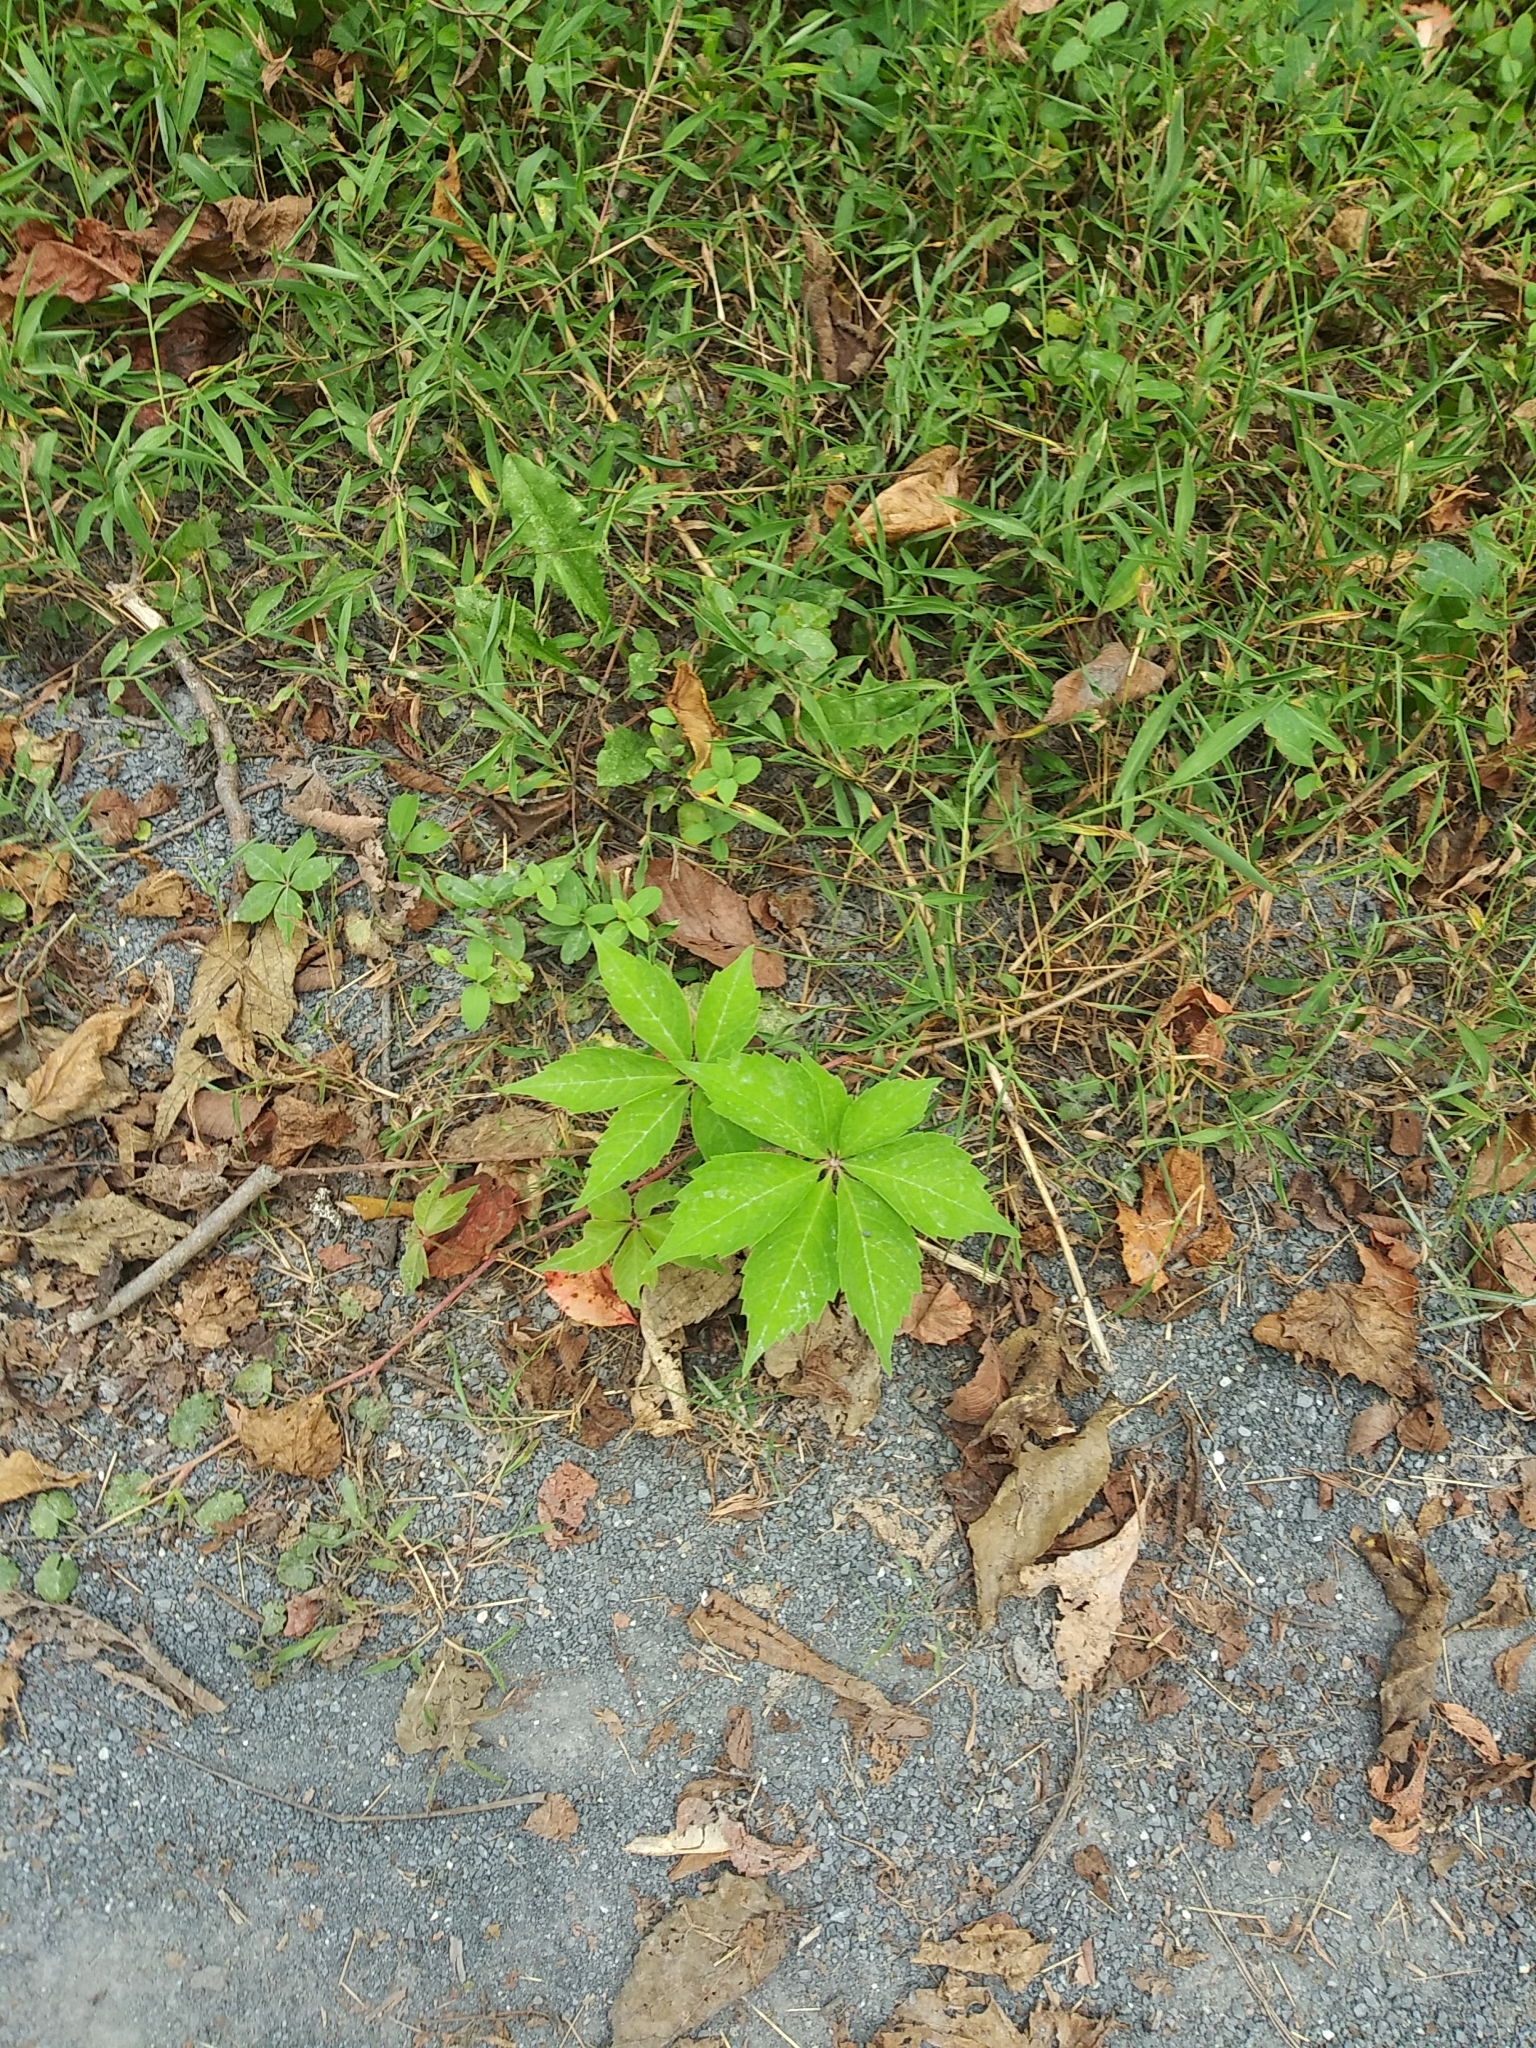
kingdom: Plantae
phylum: Tracheophyta
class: Magnoliopsida
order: Vitales
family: Vitaceae
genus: Parthenocissus
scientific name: Parthenocissus quinquefolia
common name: Virginia-creeper
